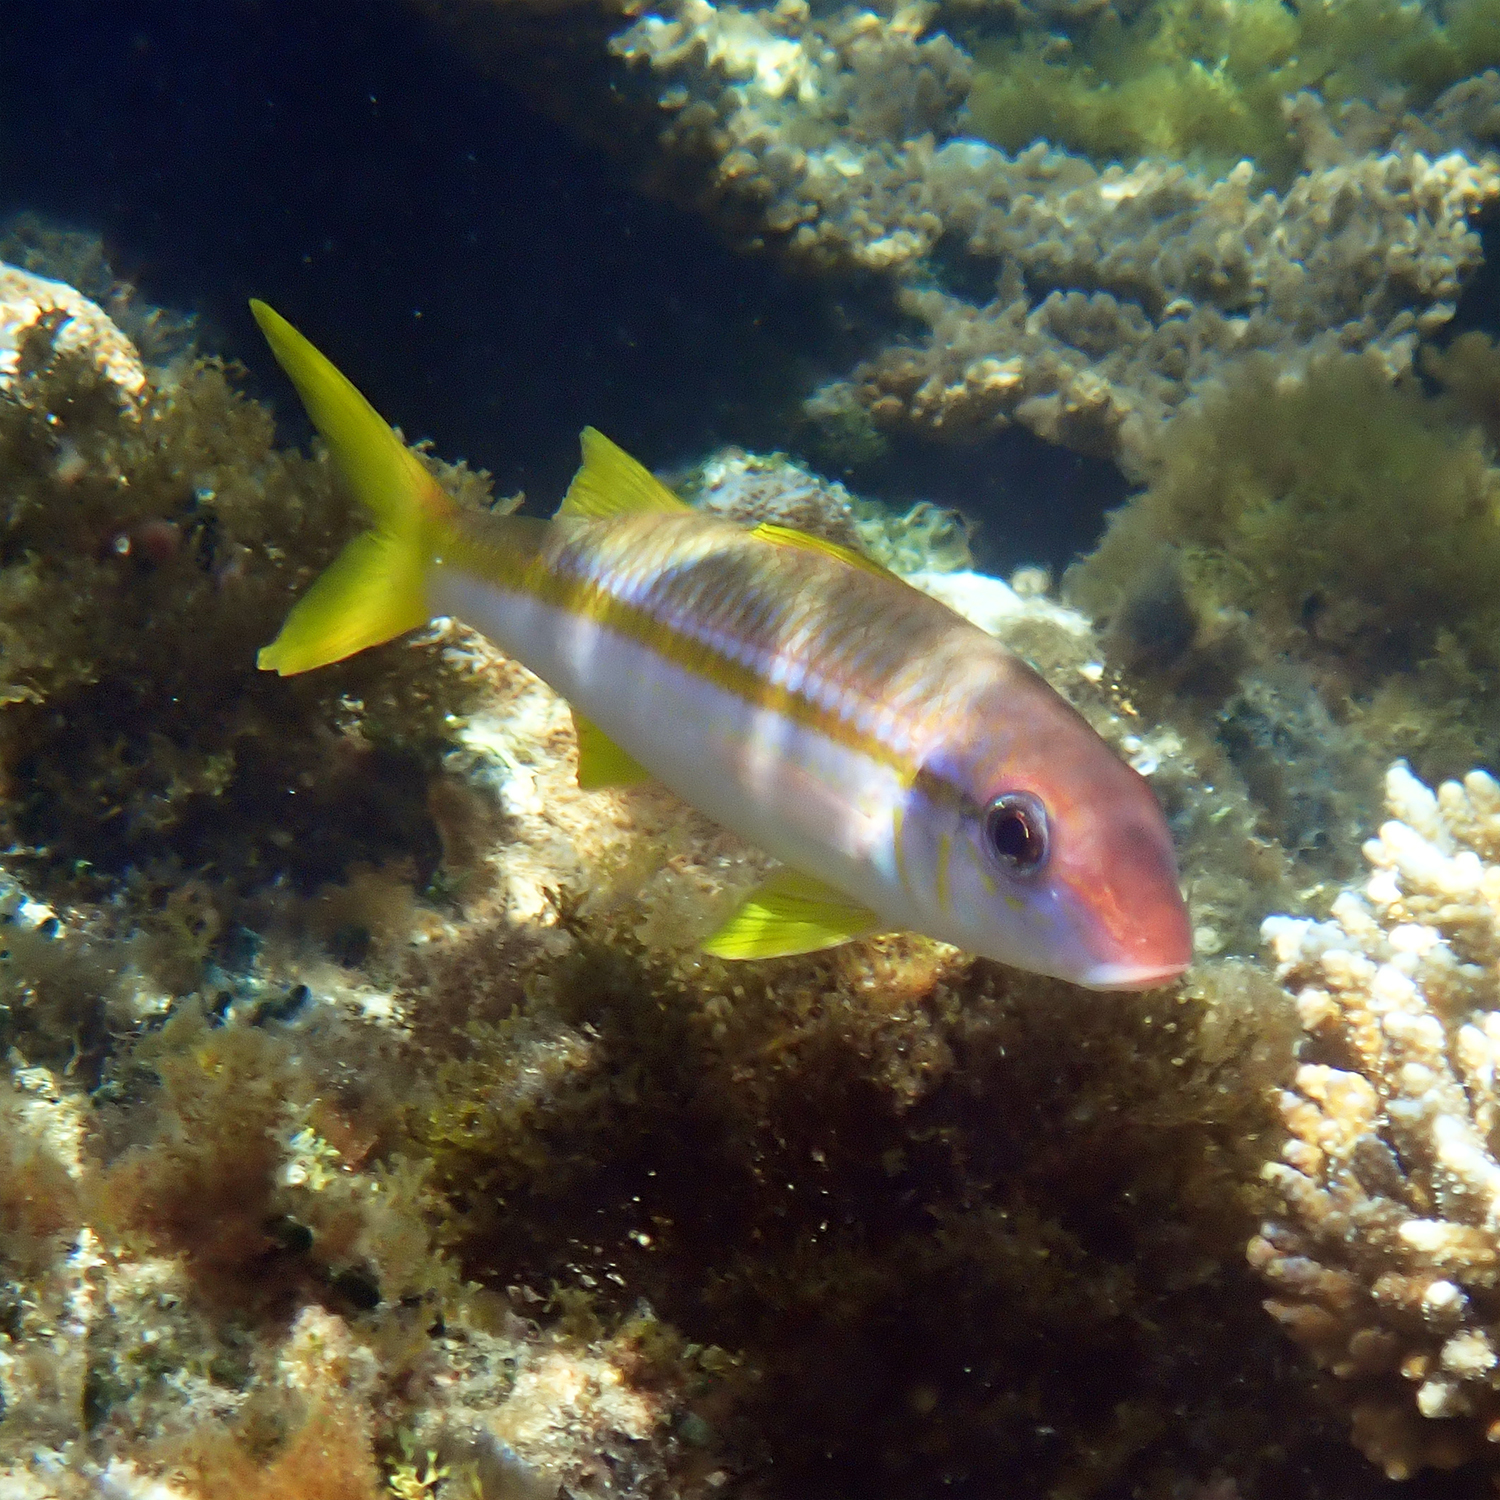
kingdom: Animalia
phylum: Chordata
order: Perciformes
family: Mullidae
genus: Mulloidichthys
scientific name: Mulloidichthys vanicolensis
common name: Yellowfin goatfish
